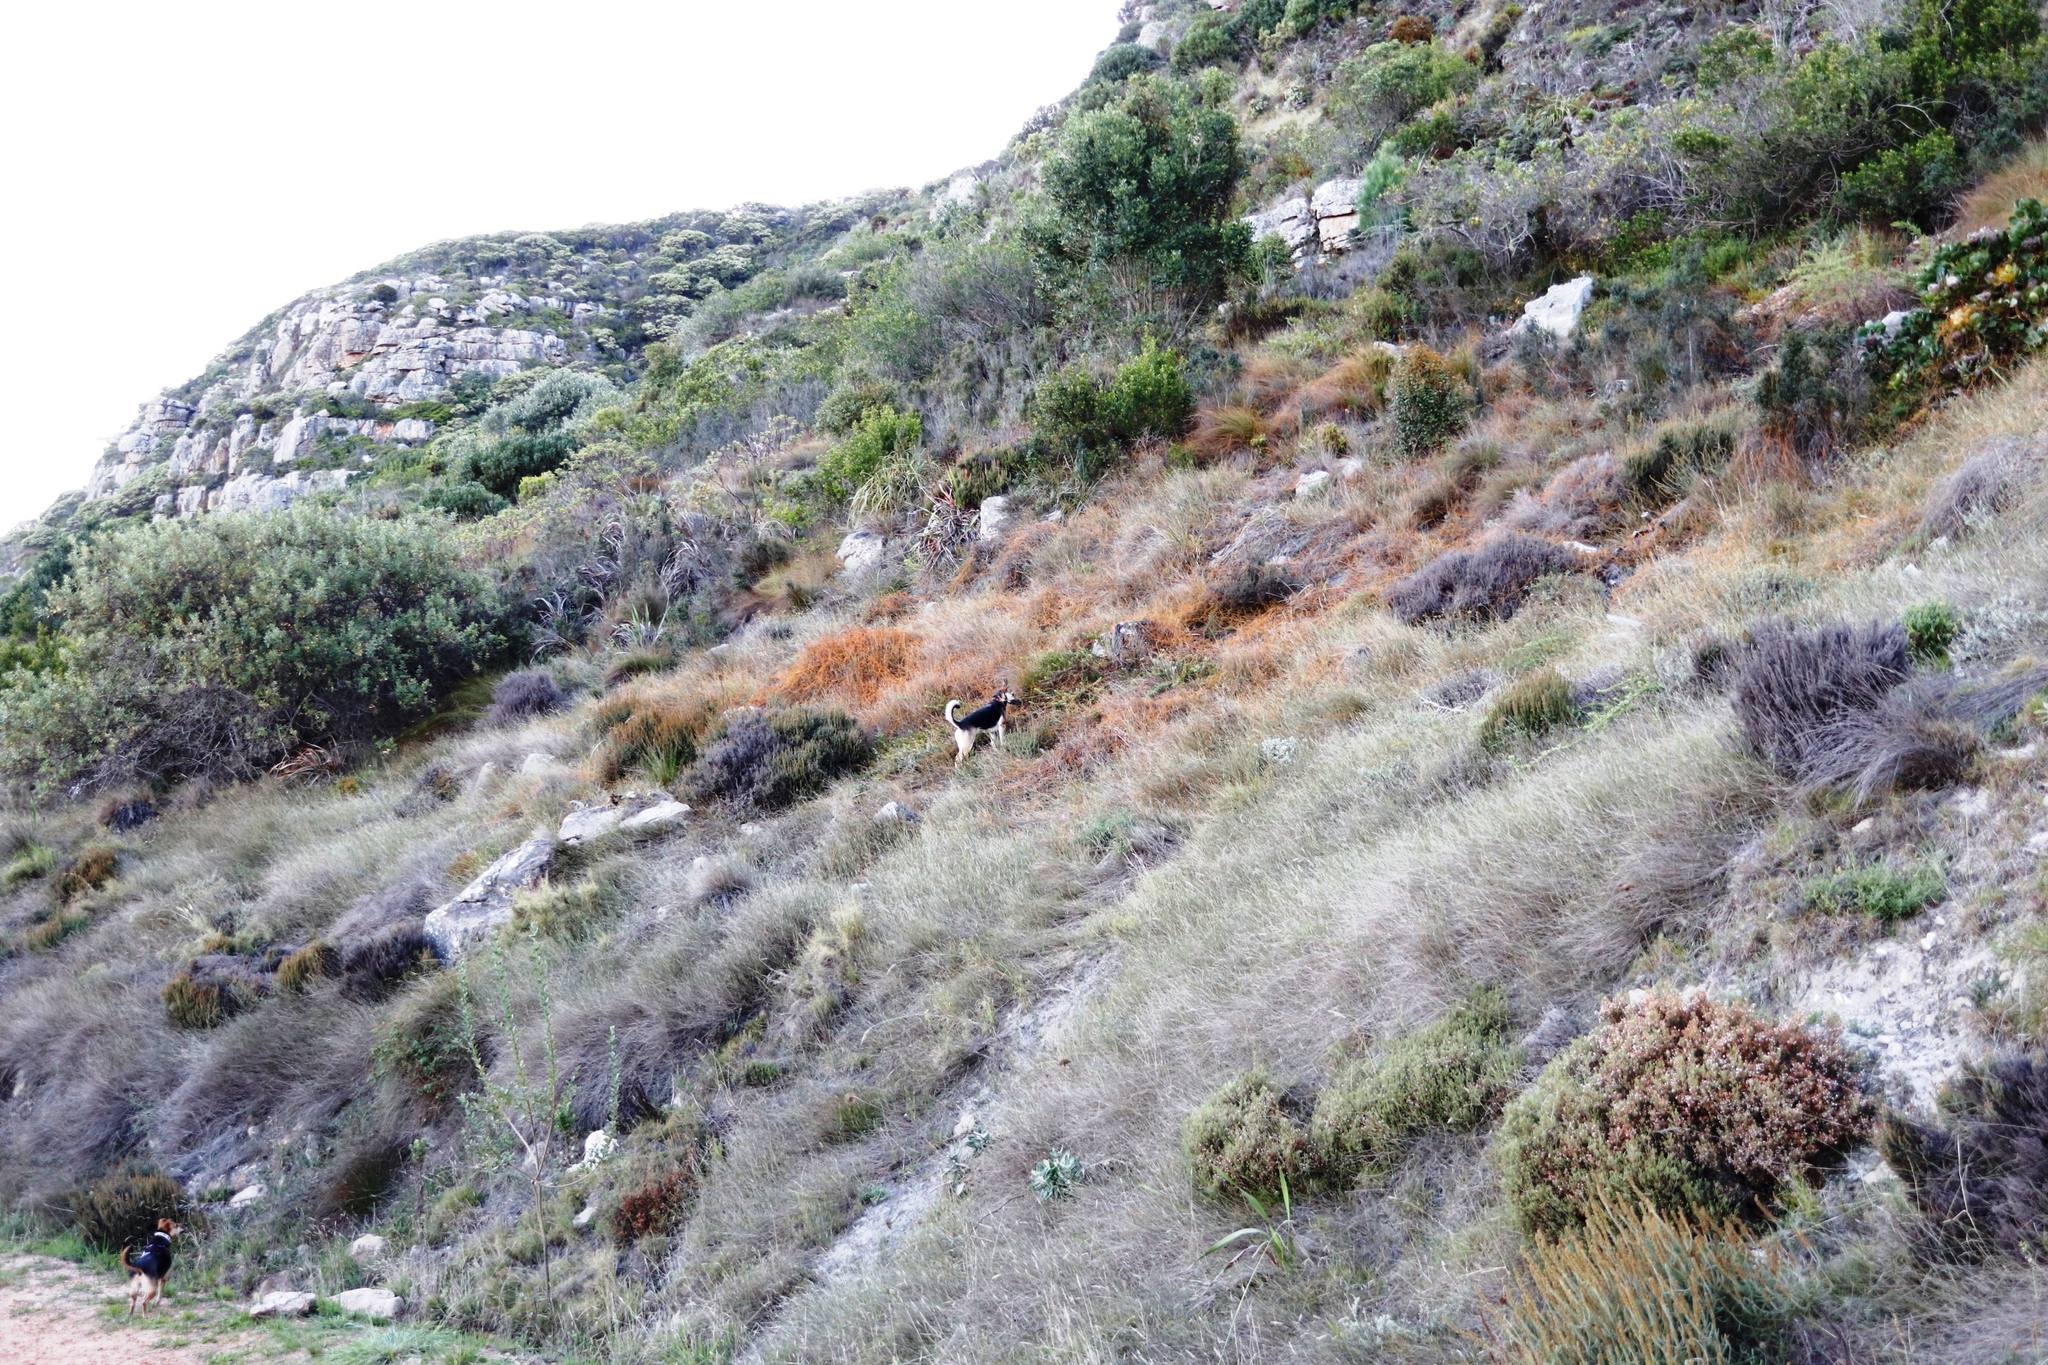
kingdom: Plantae
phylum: Tracheophyta
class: Magnoliopsida
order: Laurales
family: Lauraceae
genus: Cassytha
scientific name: Cassytha ciliolata
